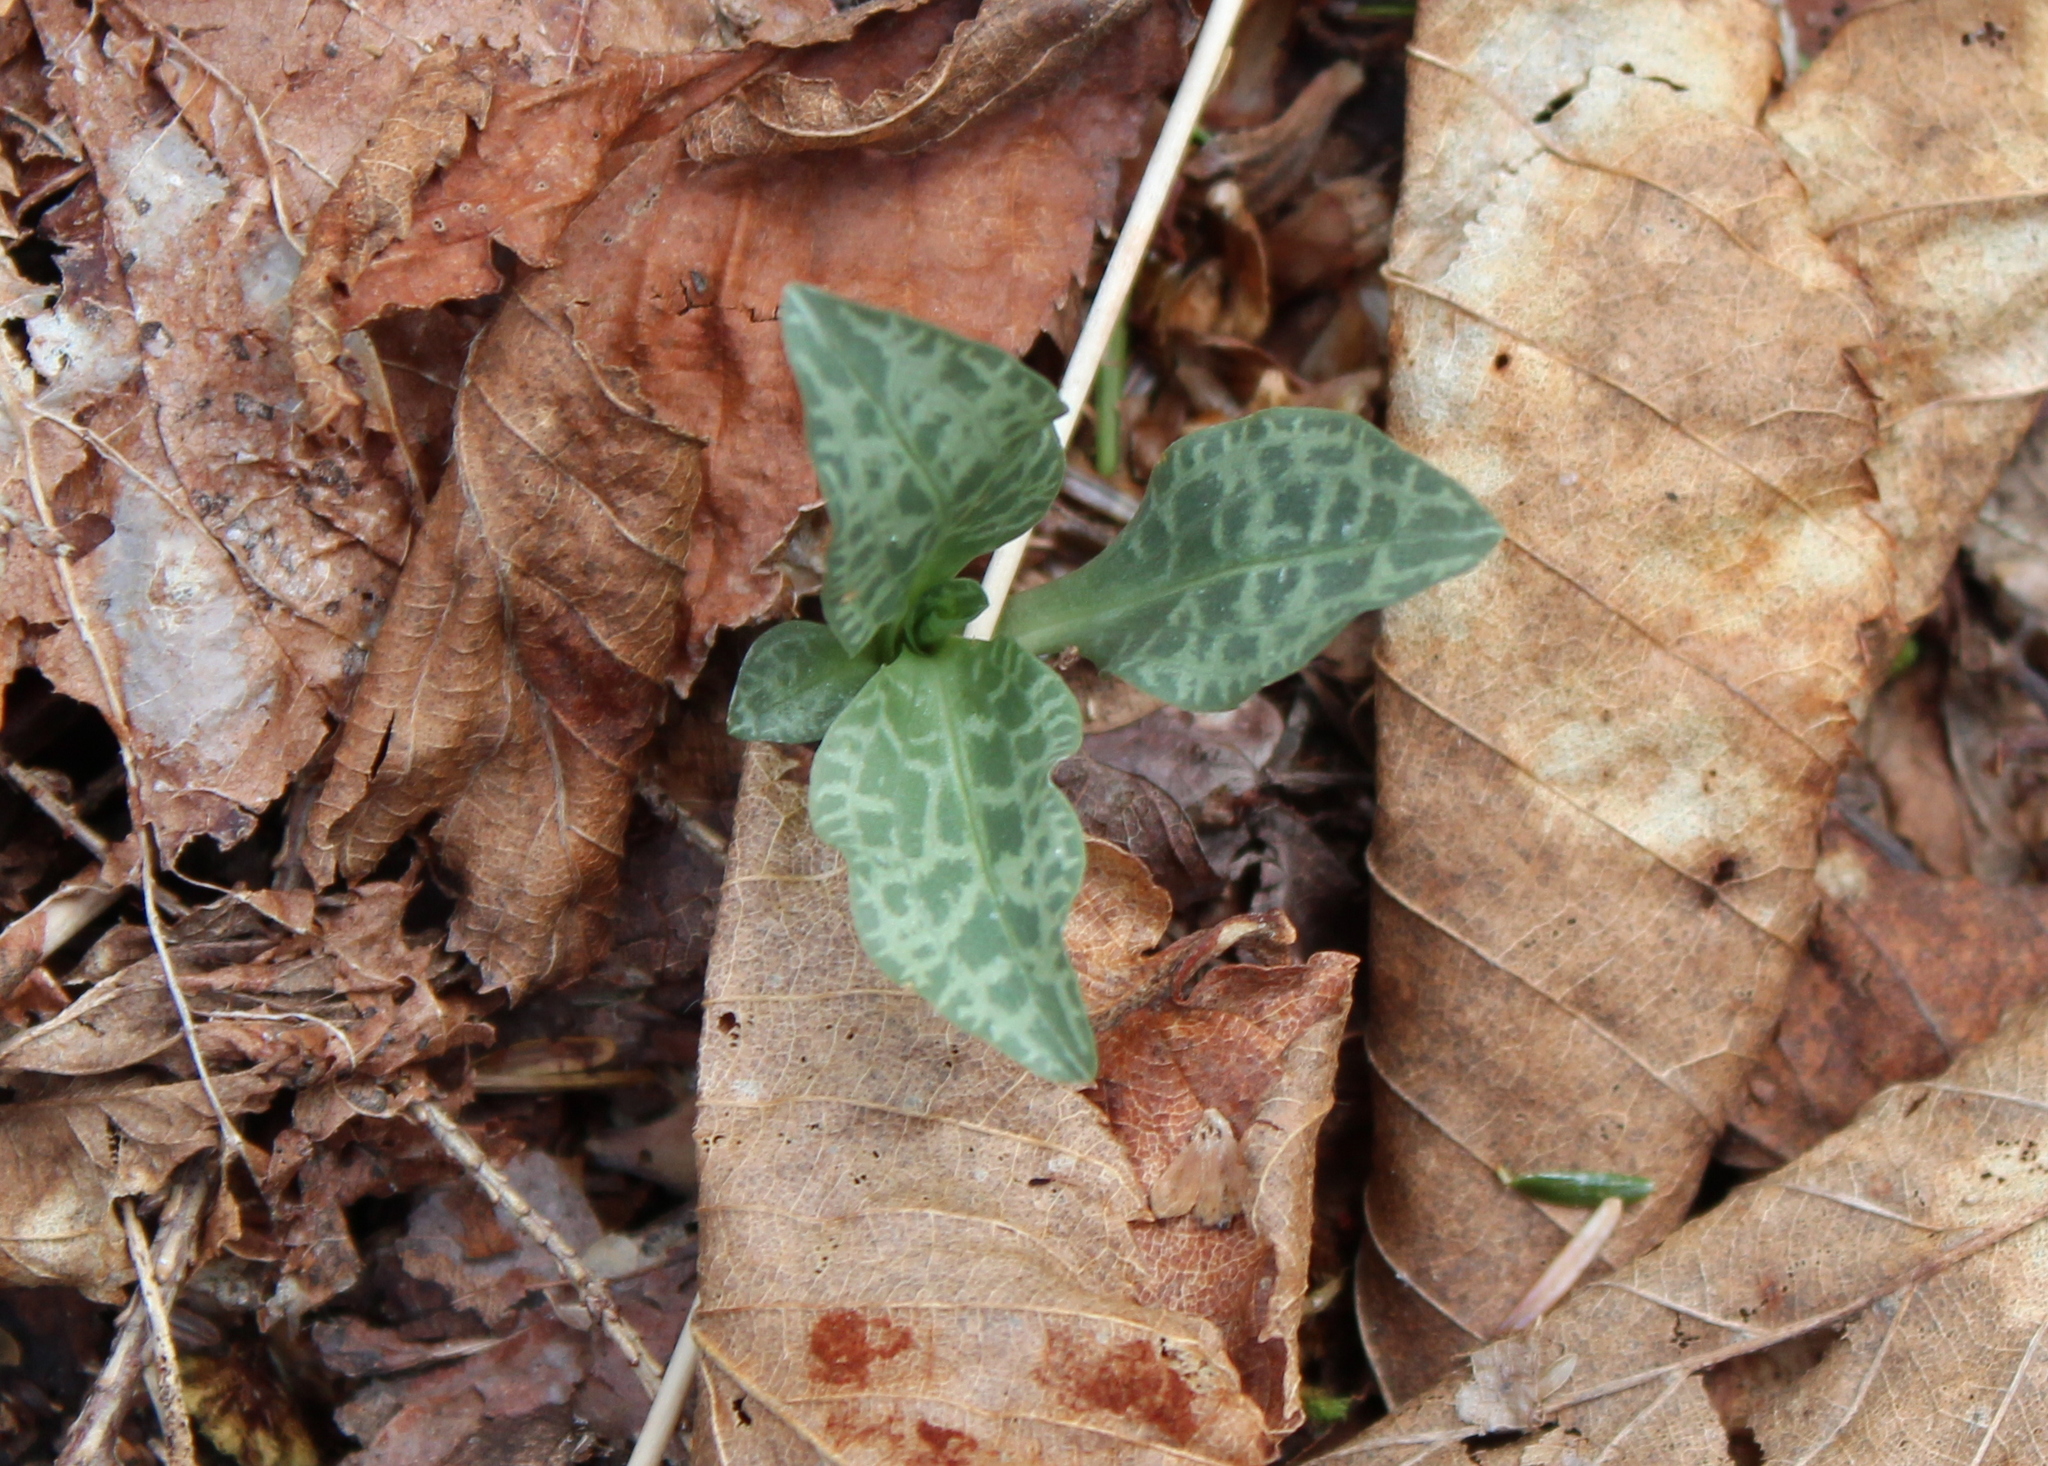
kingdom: Plantae
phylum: Tracheophyta
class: Liliopsida
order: Asparagales
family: Orchidaceae
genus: Goodyera
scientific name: Goodyera tesselata
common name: Checkered rattlesnake-plantain
